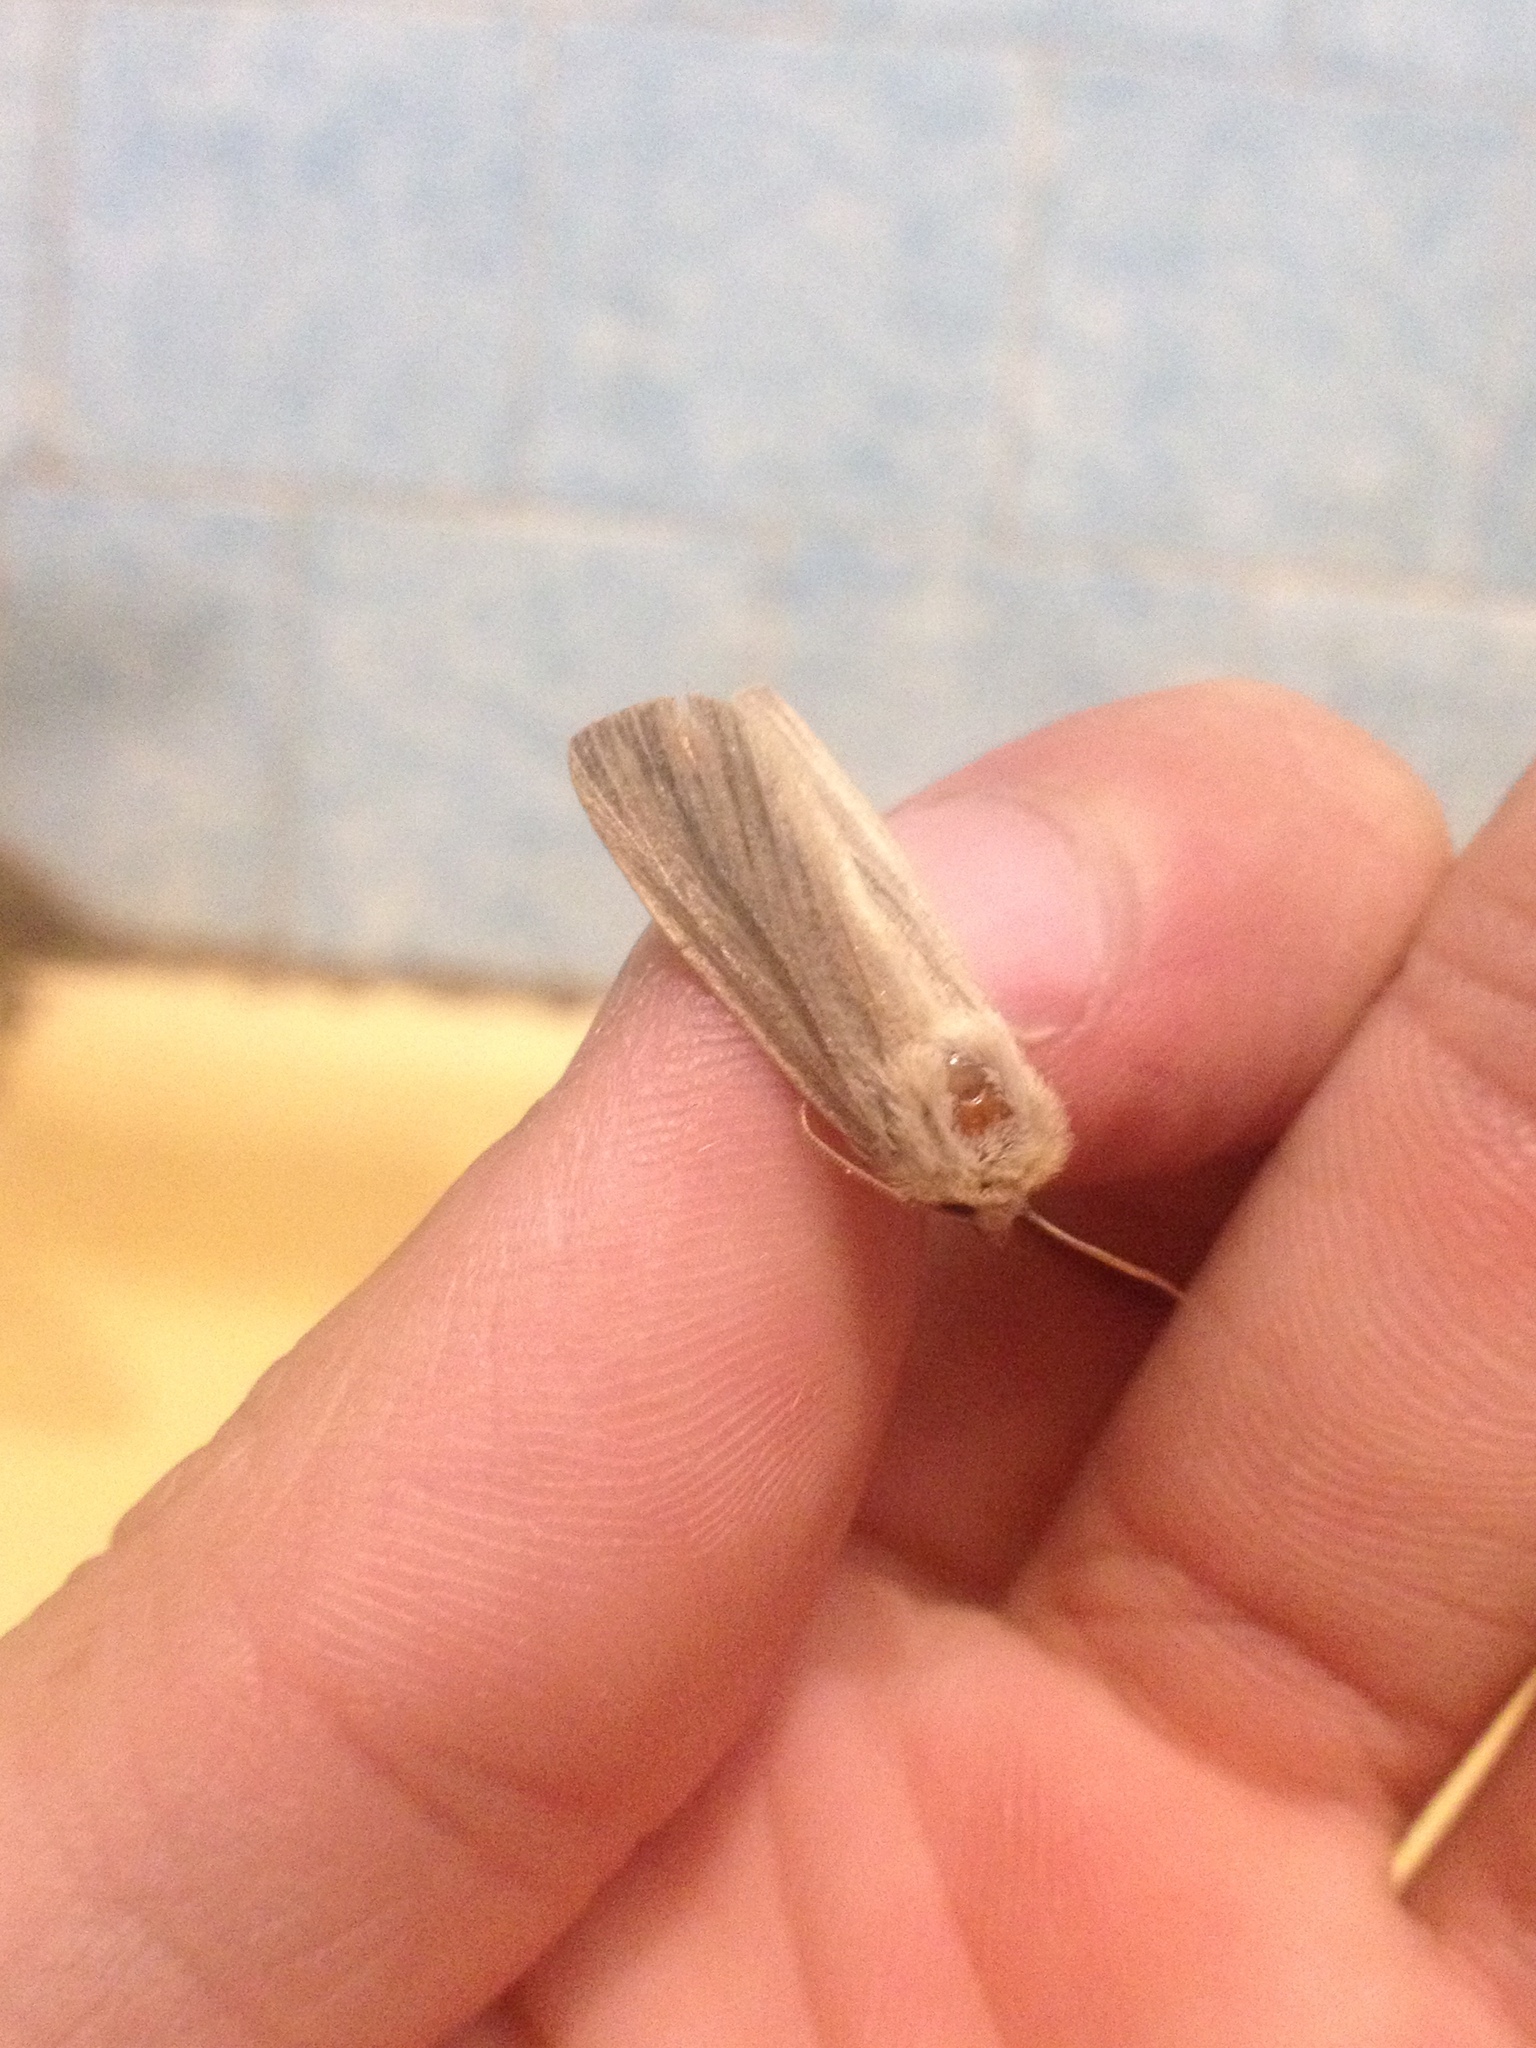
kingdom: Animalia
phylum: Arthropoda
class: Insecta
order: Lepidoptera
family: Noctuidae
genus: Mythimna
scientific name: Mythimna impura
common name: Smoky wainscot
